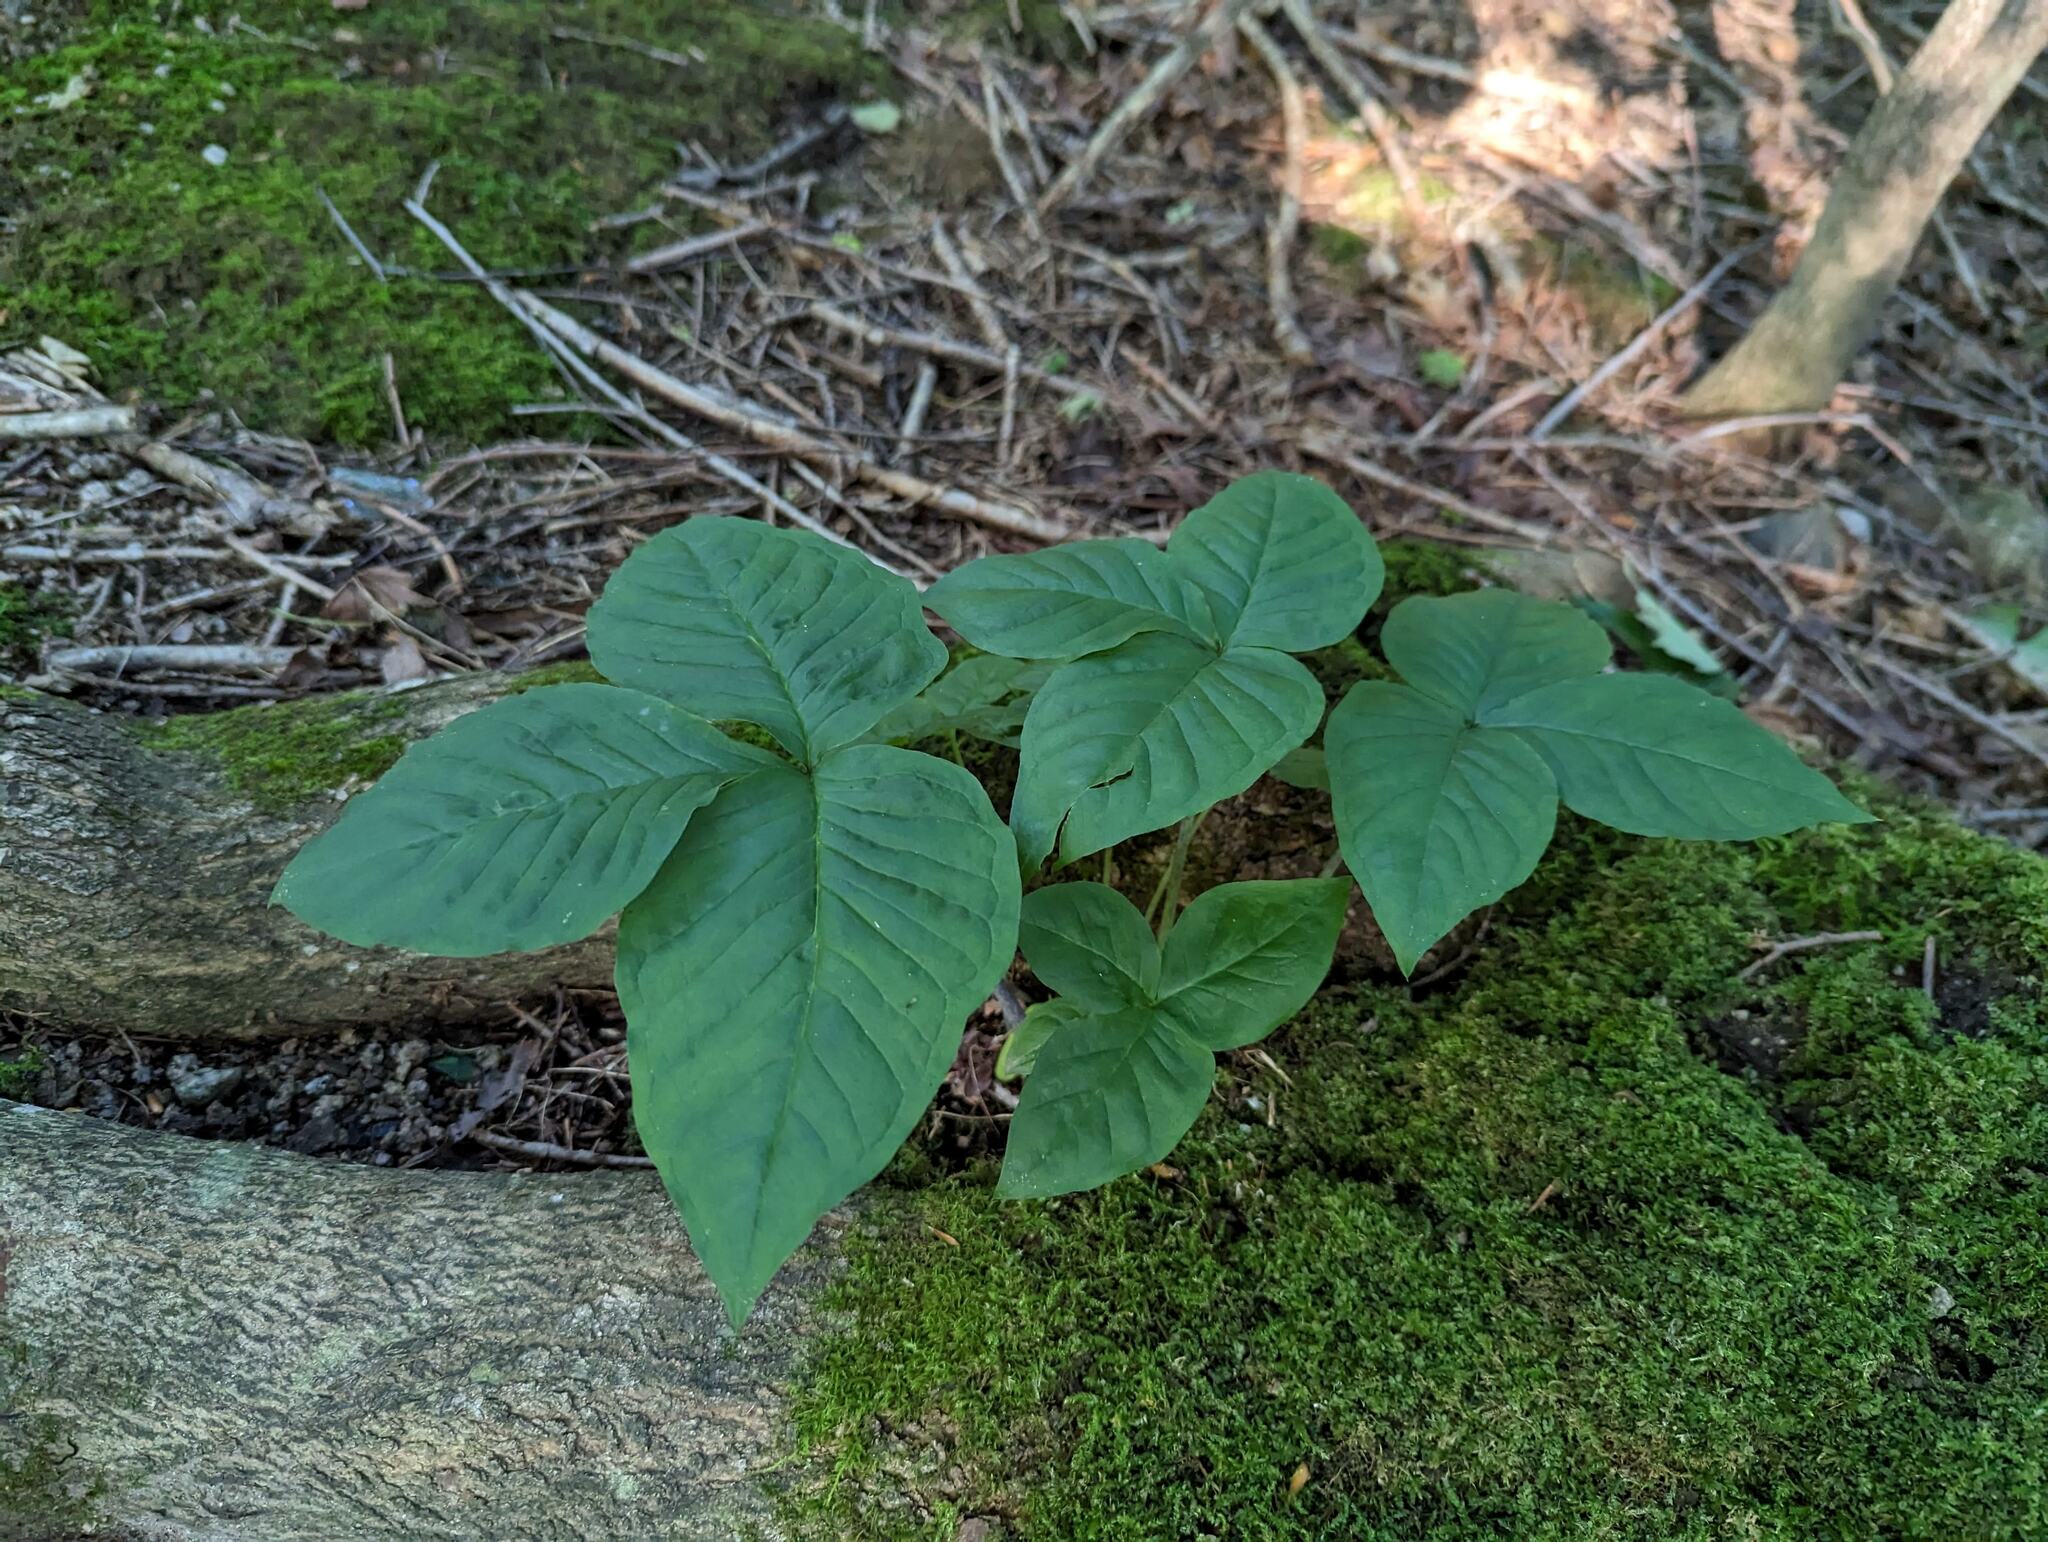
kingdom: Plantae
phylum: Tracheophyta
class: Liliopsida
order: Alismatales
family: Araceae
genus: Arisaema
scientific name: Arisaema triphyllum
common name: Jack-in-the-pulpit
